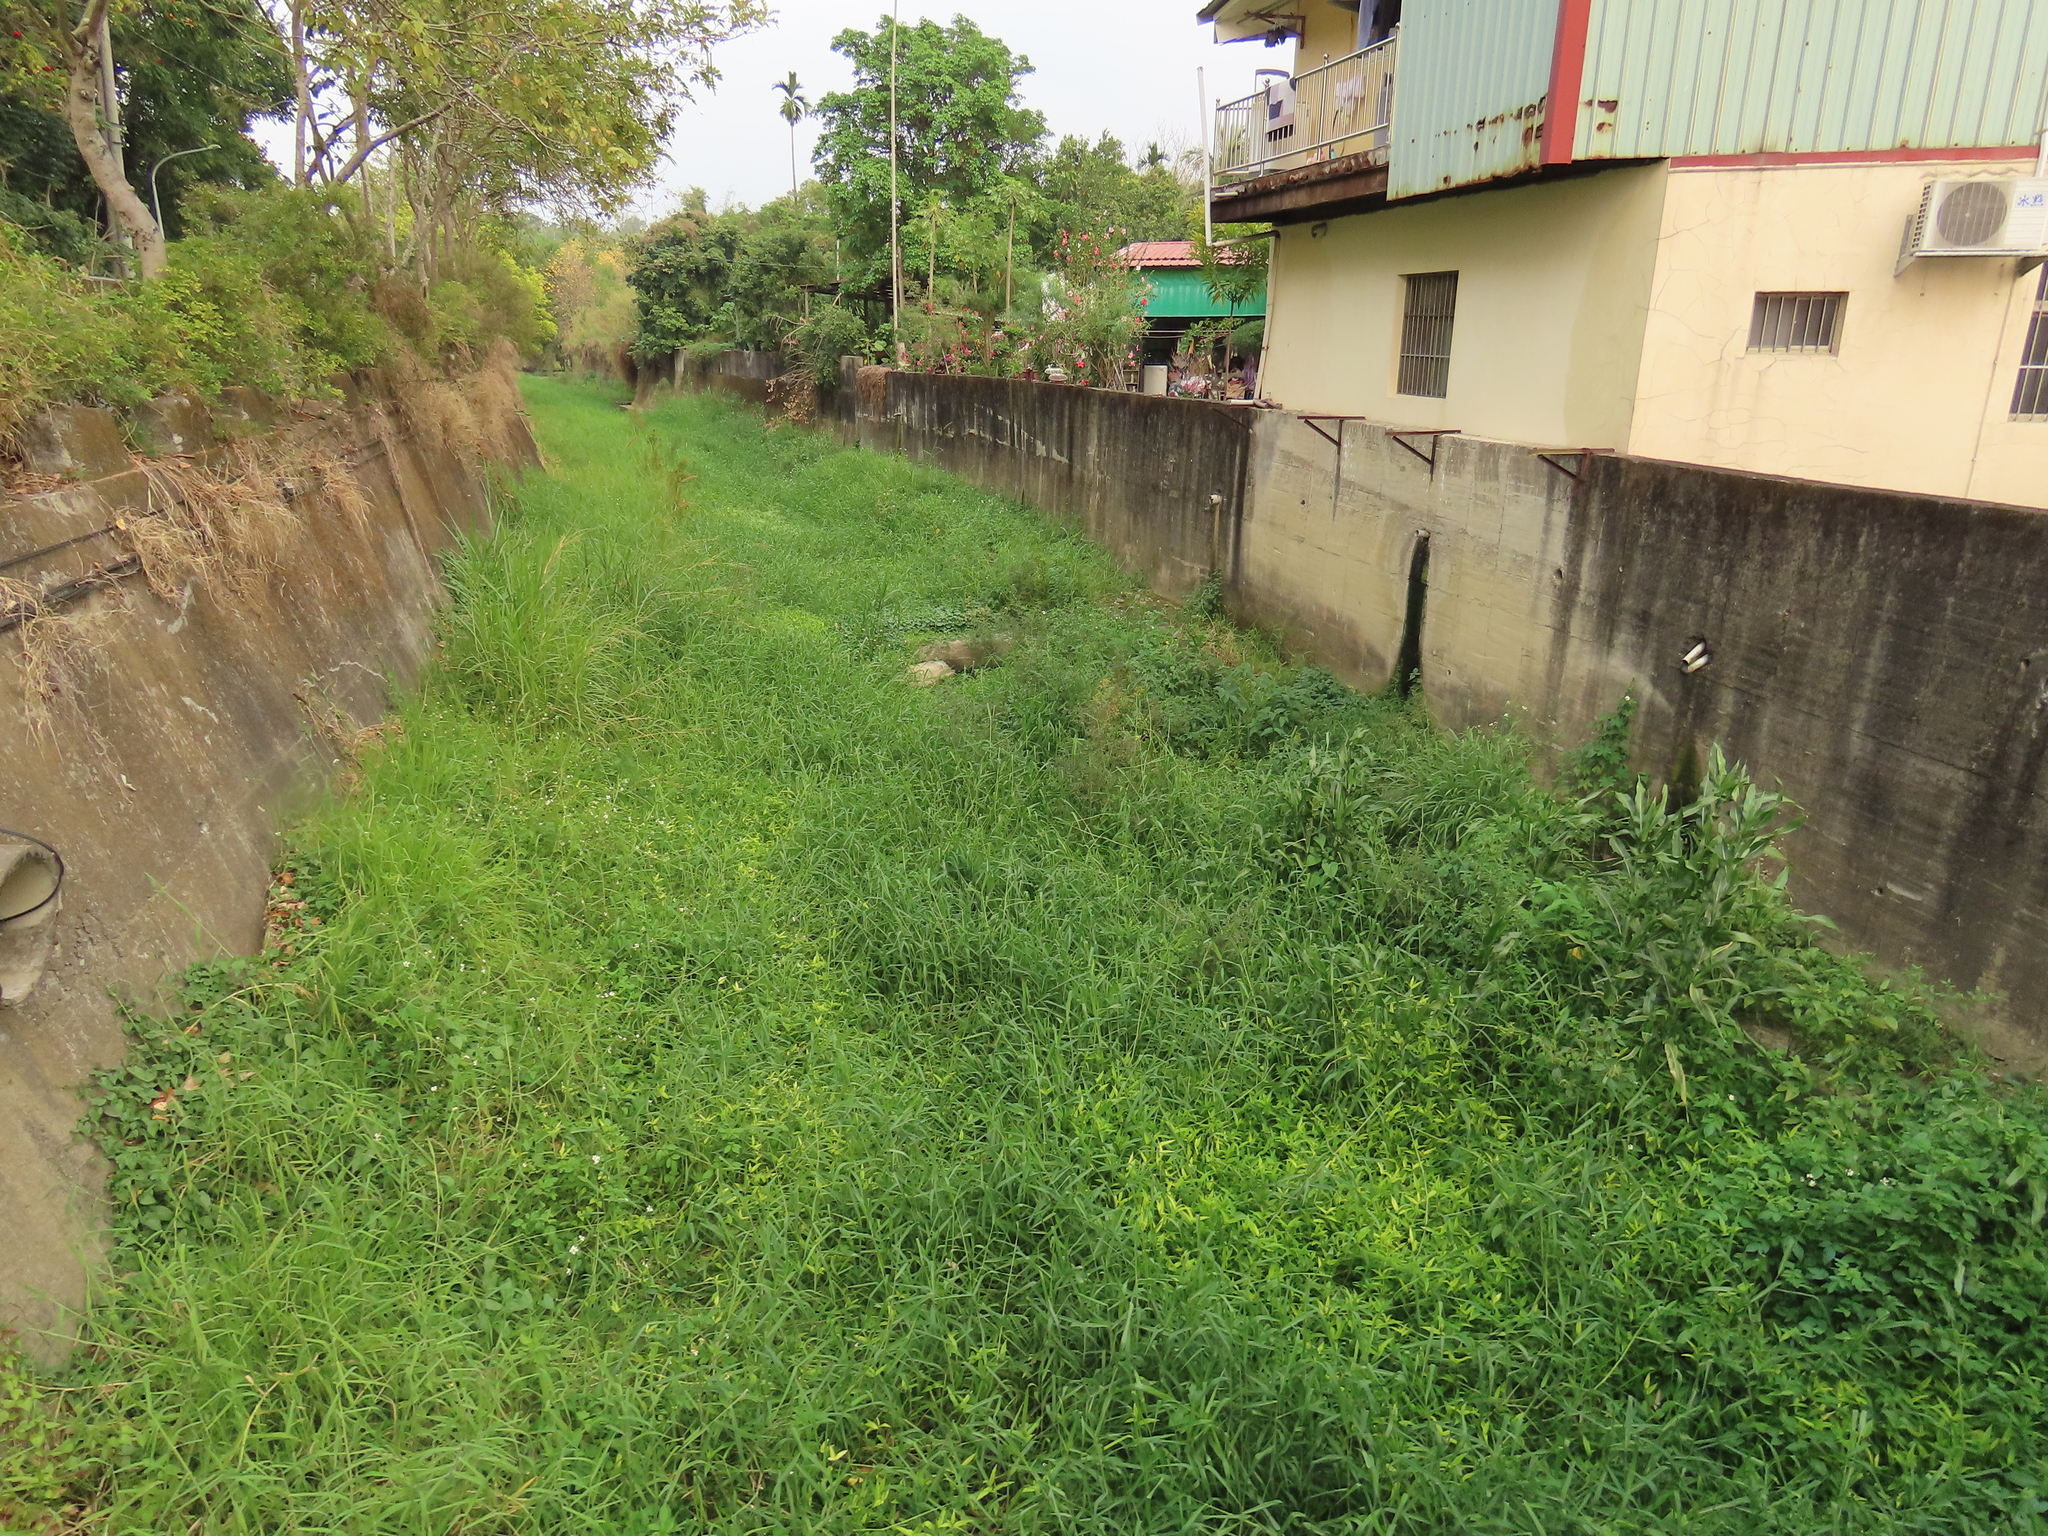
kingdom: Plantae
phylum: Tracheophyta
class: Liliopsida
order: Poales
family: Poaceae
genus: Zea
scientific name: Zea mays
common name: Maize
